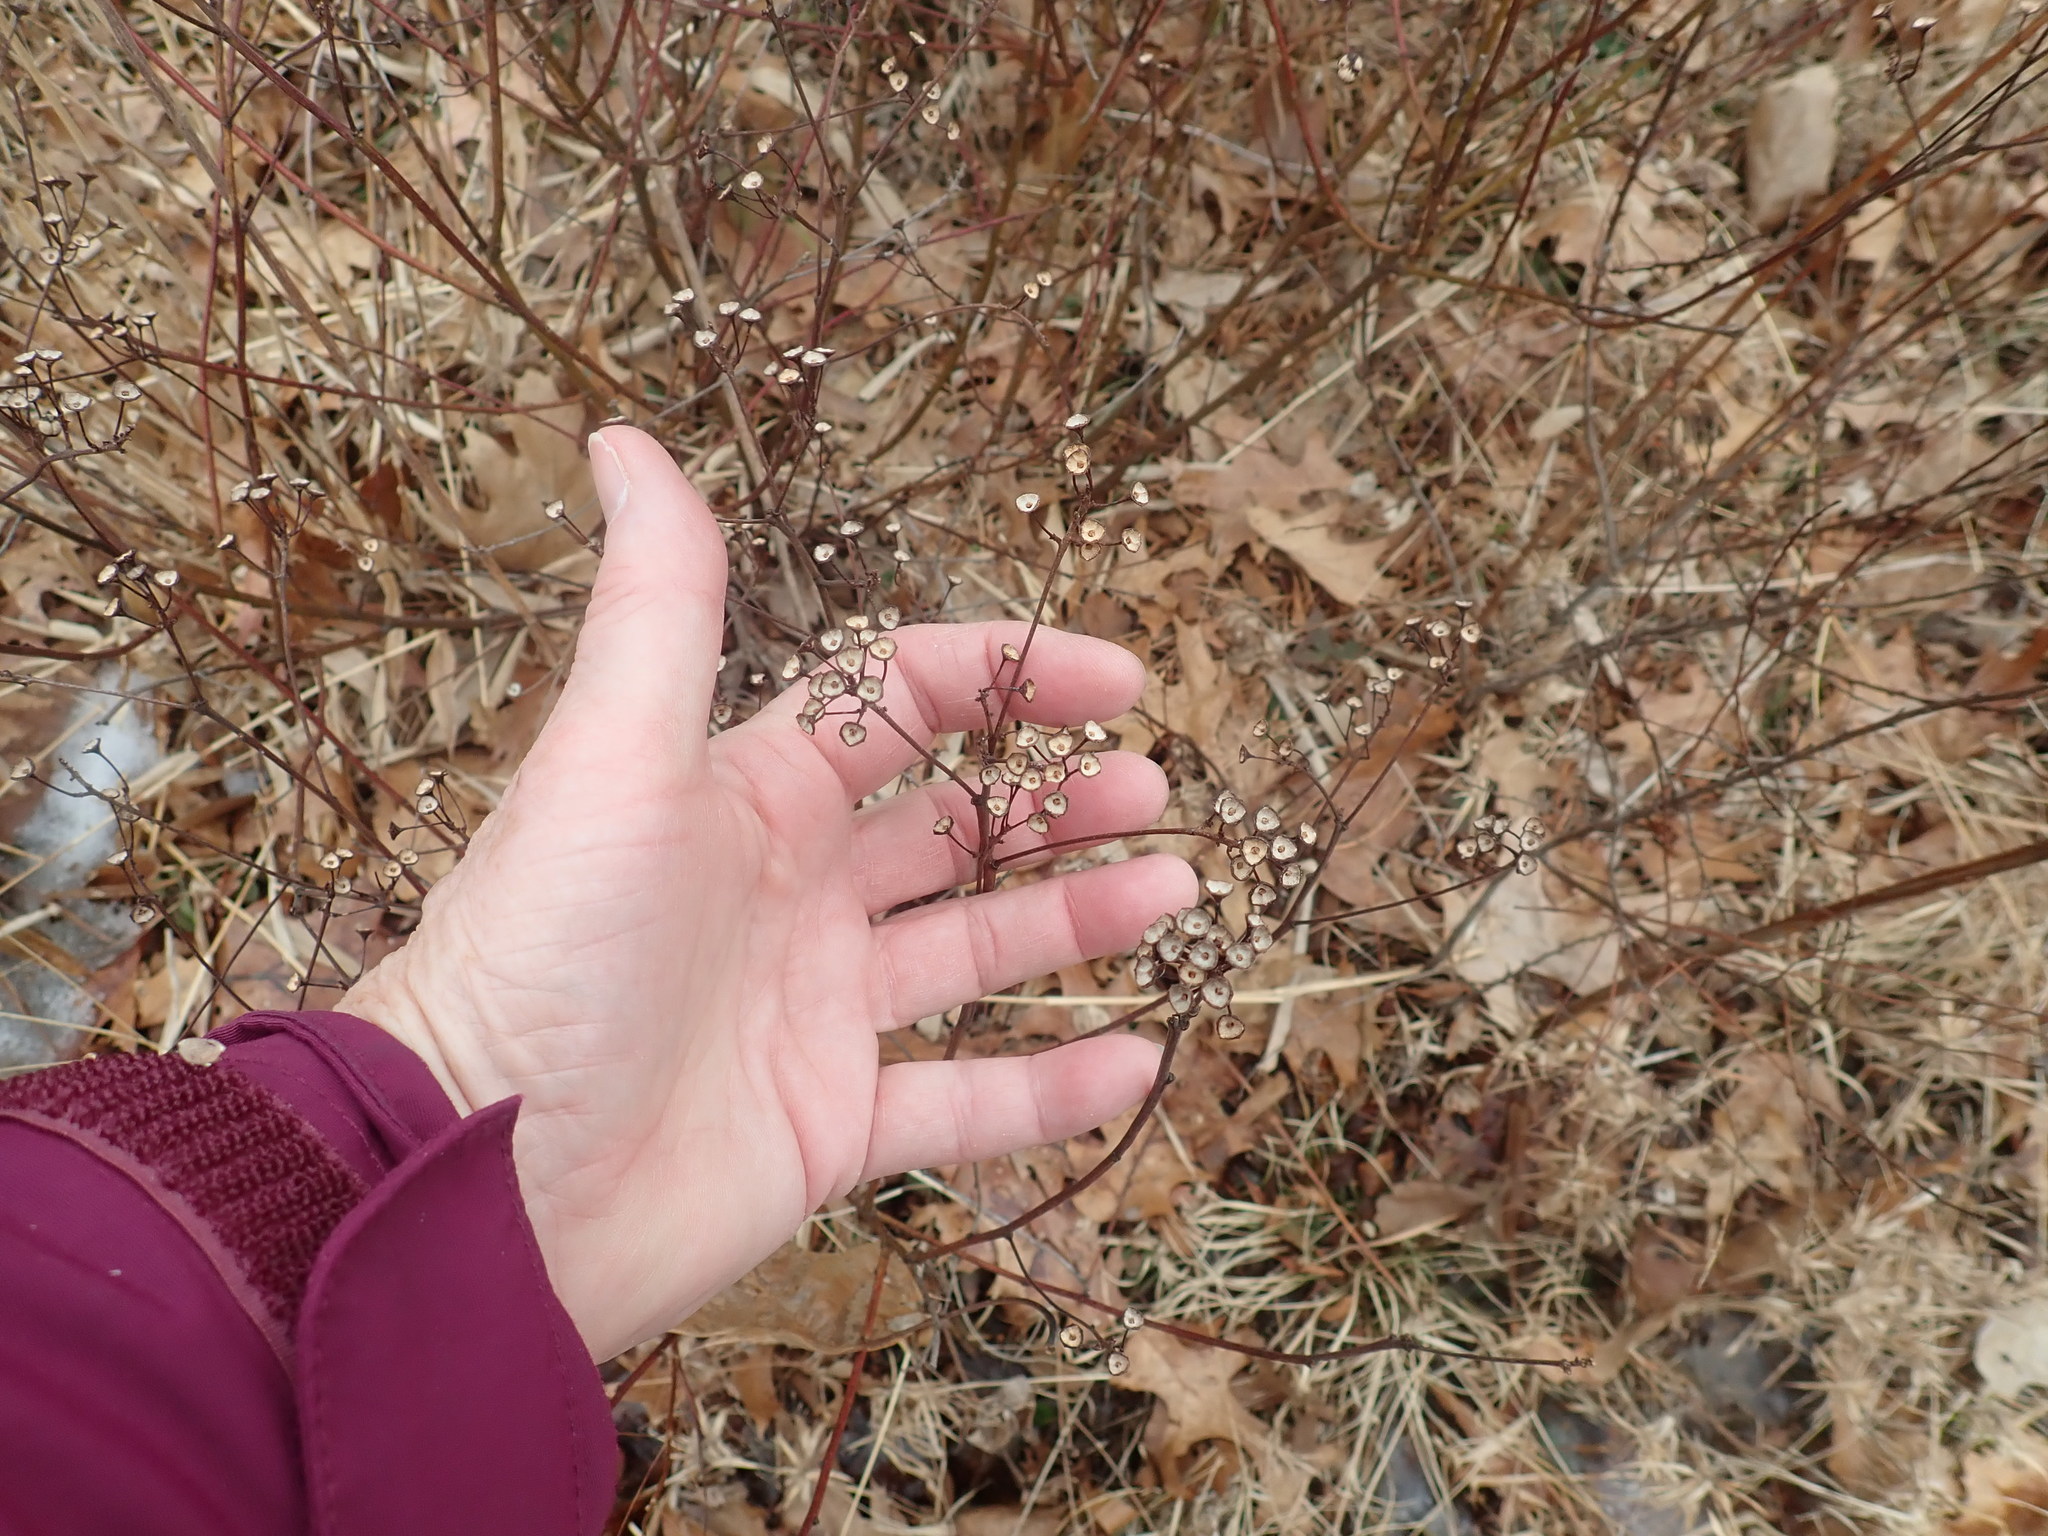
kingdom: Plantae
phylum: Tracheophyta
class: Magnoliopsida
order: Rosales
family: Rhamnaceae
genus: Ceanothus
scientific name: Ceanothus americanus
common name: Redroot
